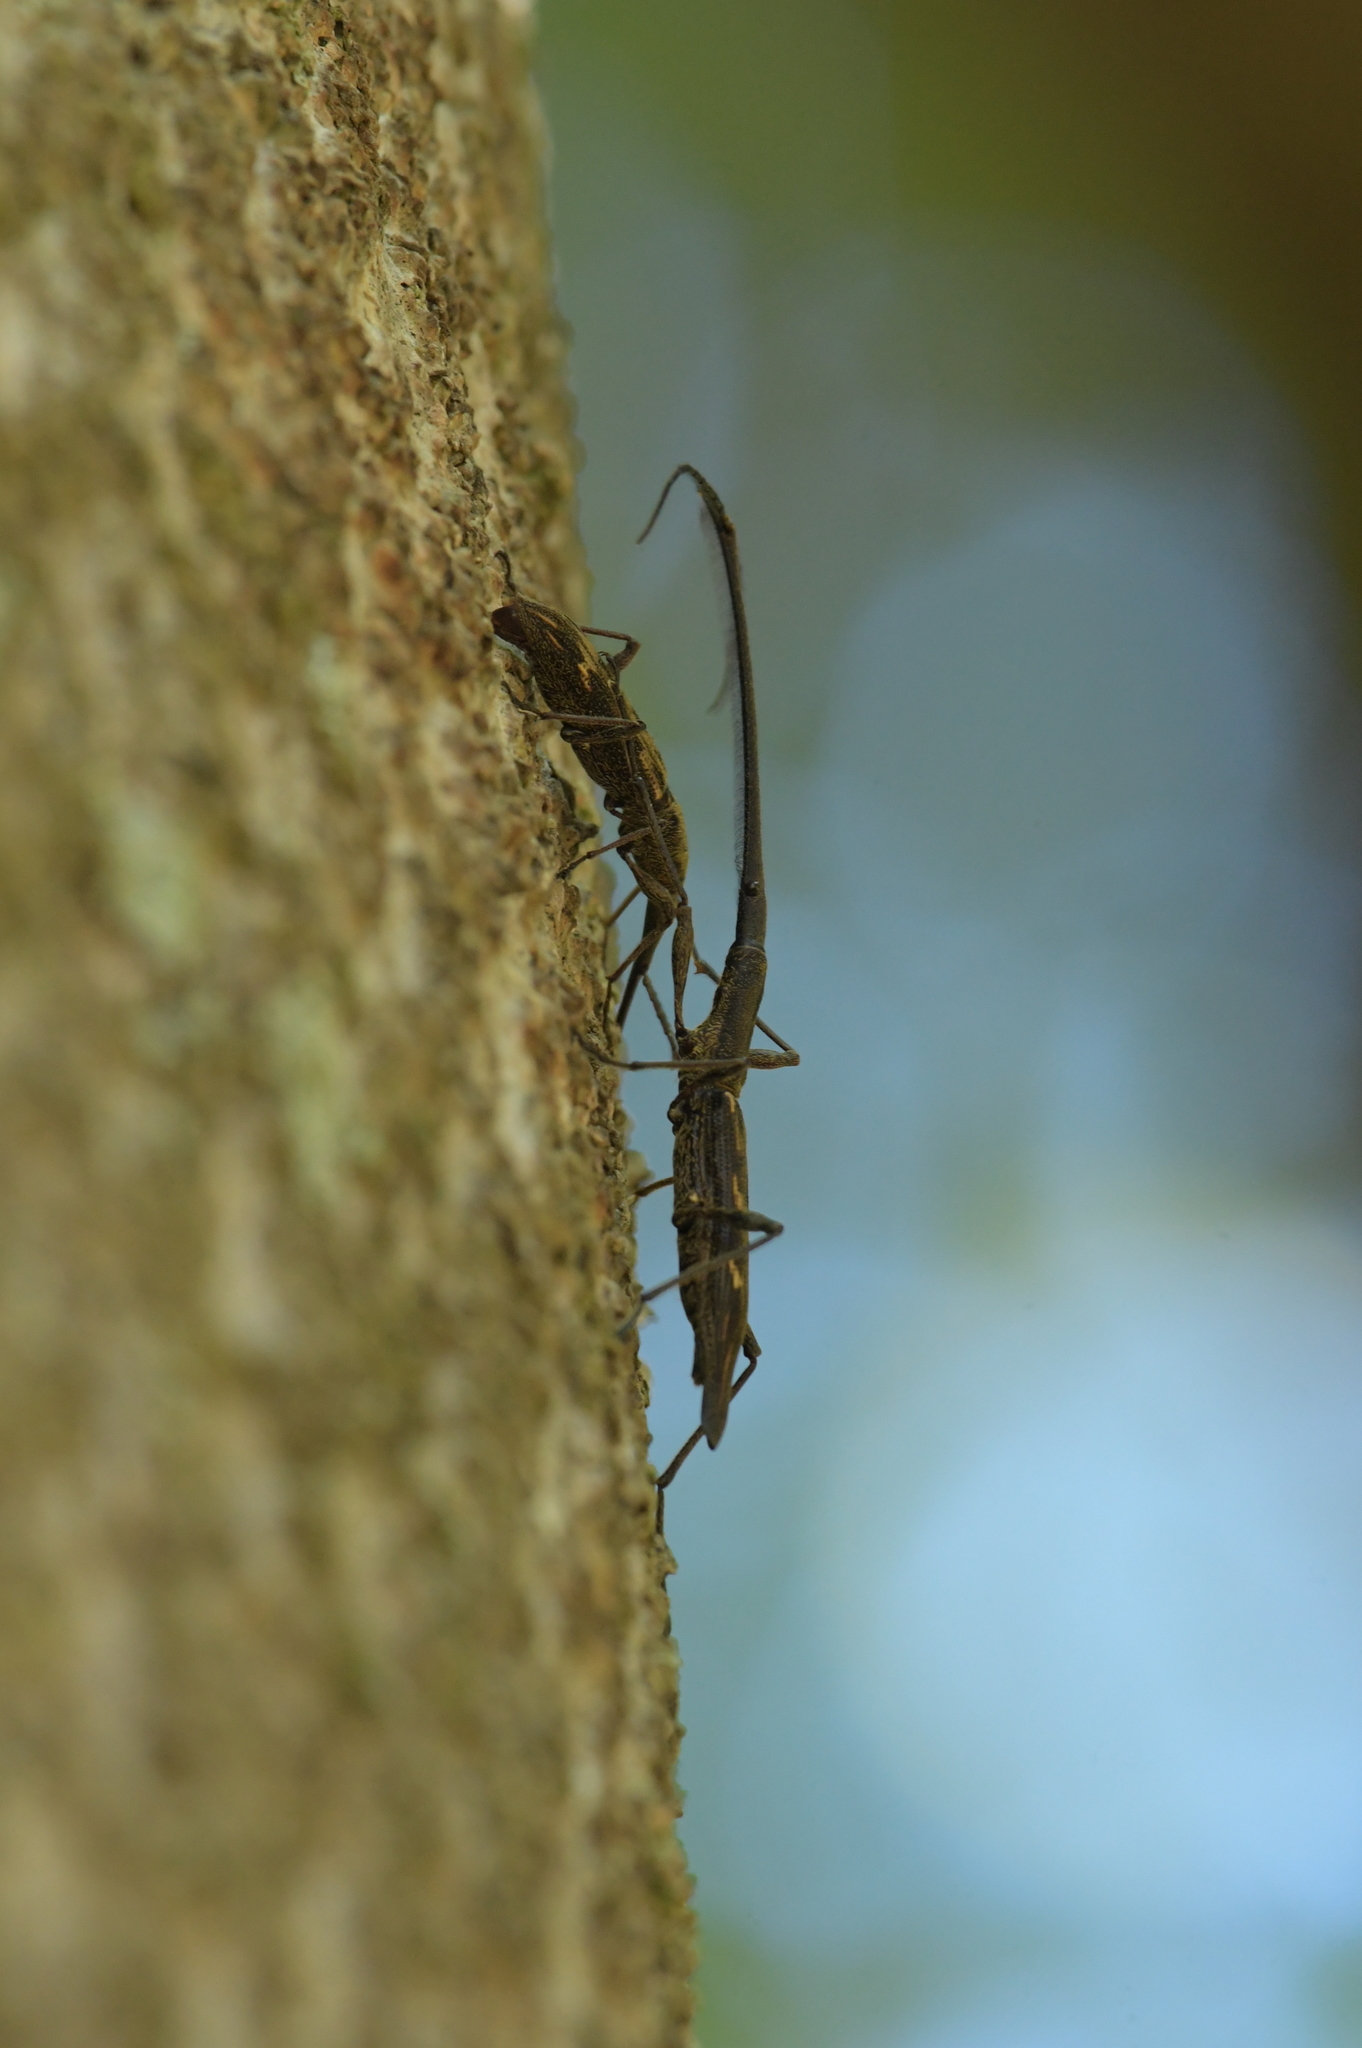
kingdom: Animalia
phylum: Arthropoda
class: Insecta
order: Coleoptera
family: Brentidae
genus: Lasiorhynchus
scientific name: Lasiorhynchus barbicornis
